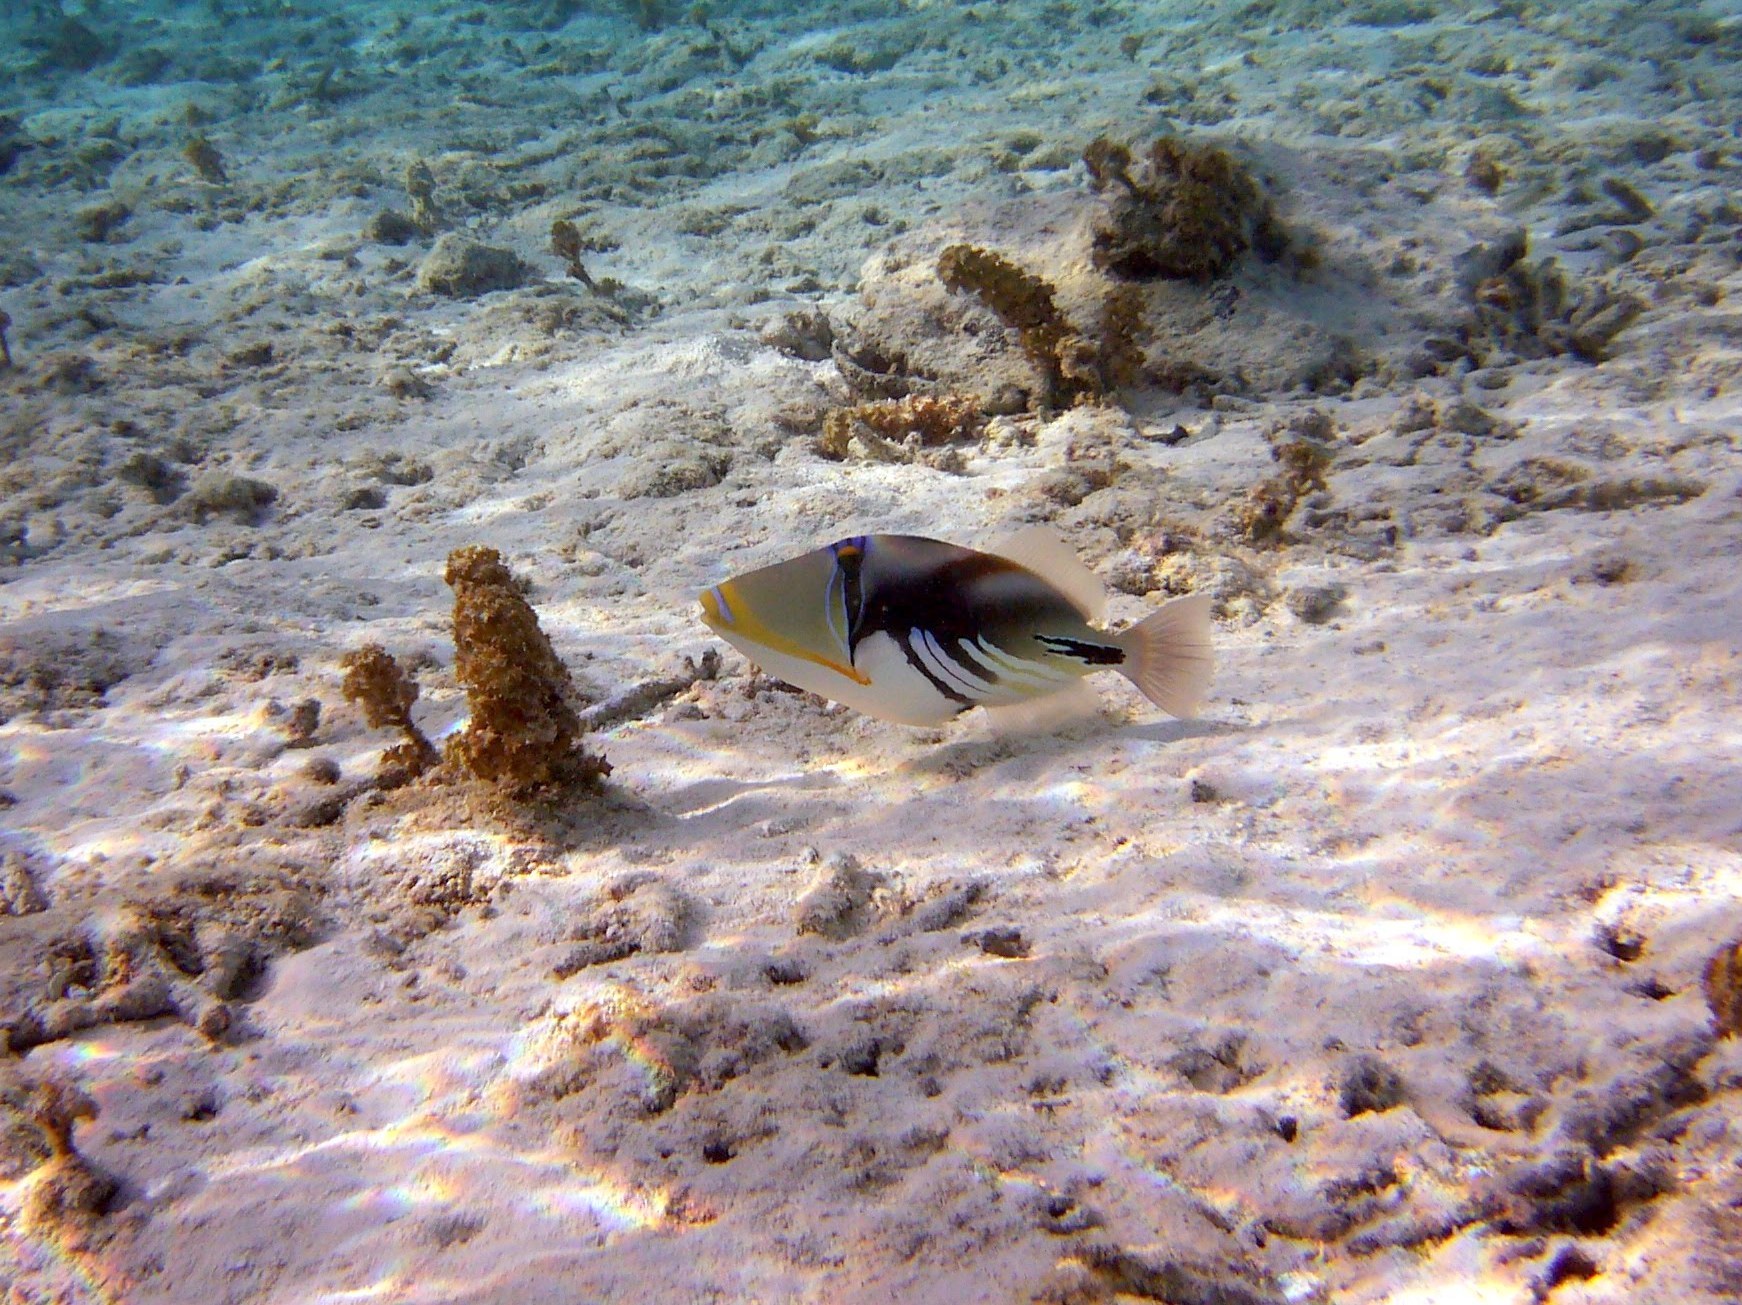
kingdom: Animalia
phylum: Chordata
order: Tetraodontiformes
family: Balistidae
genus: Rhinecanthus
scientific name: Rhinecanthus aculeatus
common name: White-banded triggerfish
